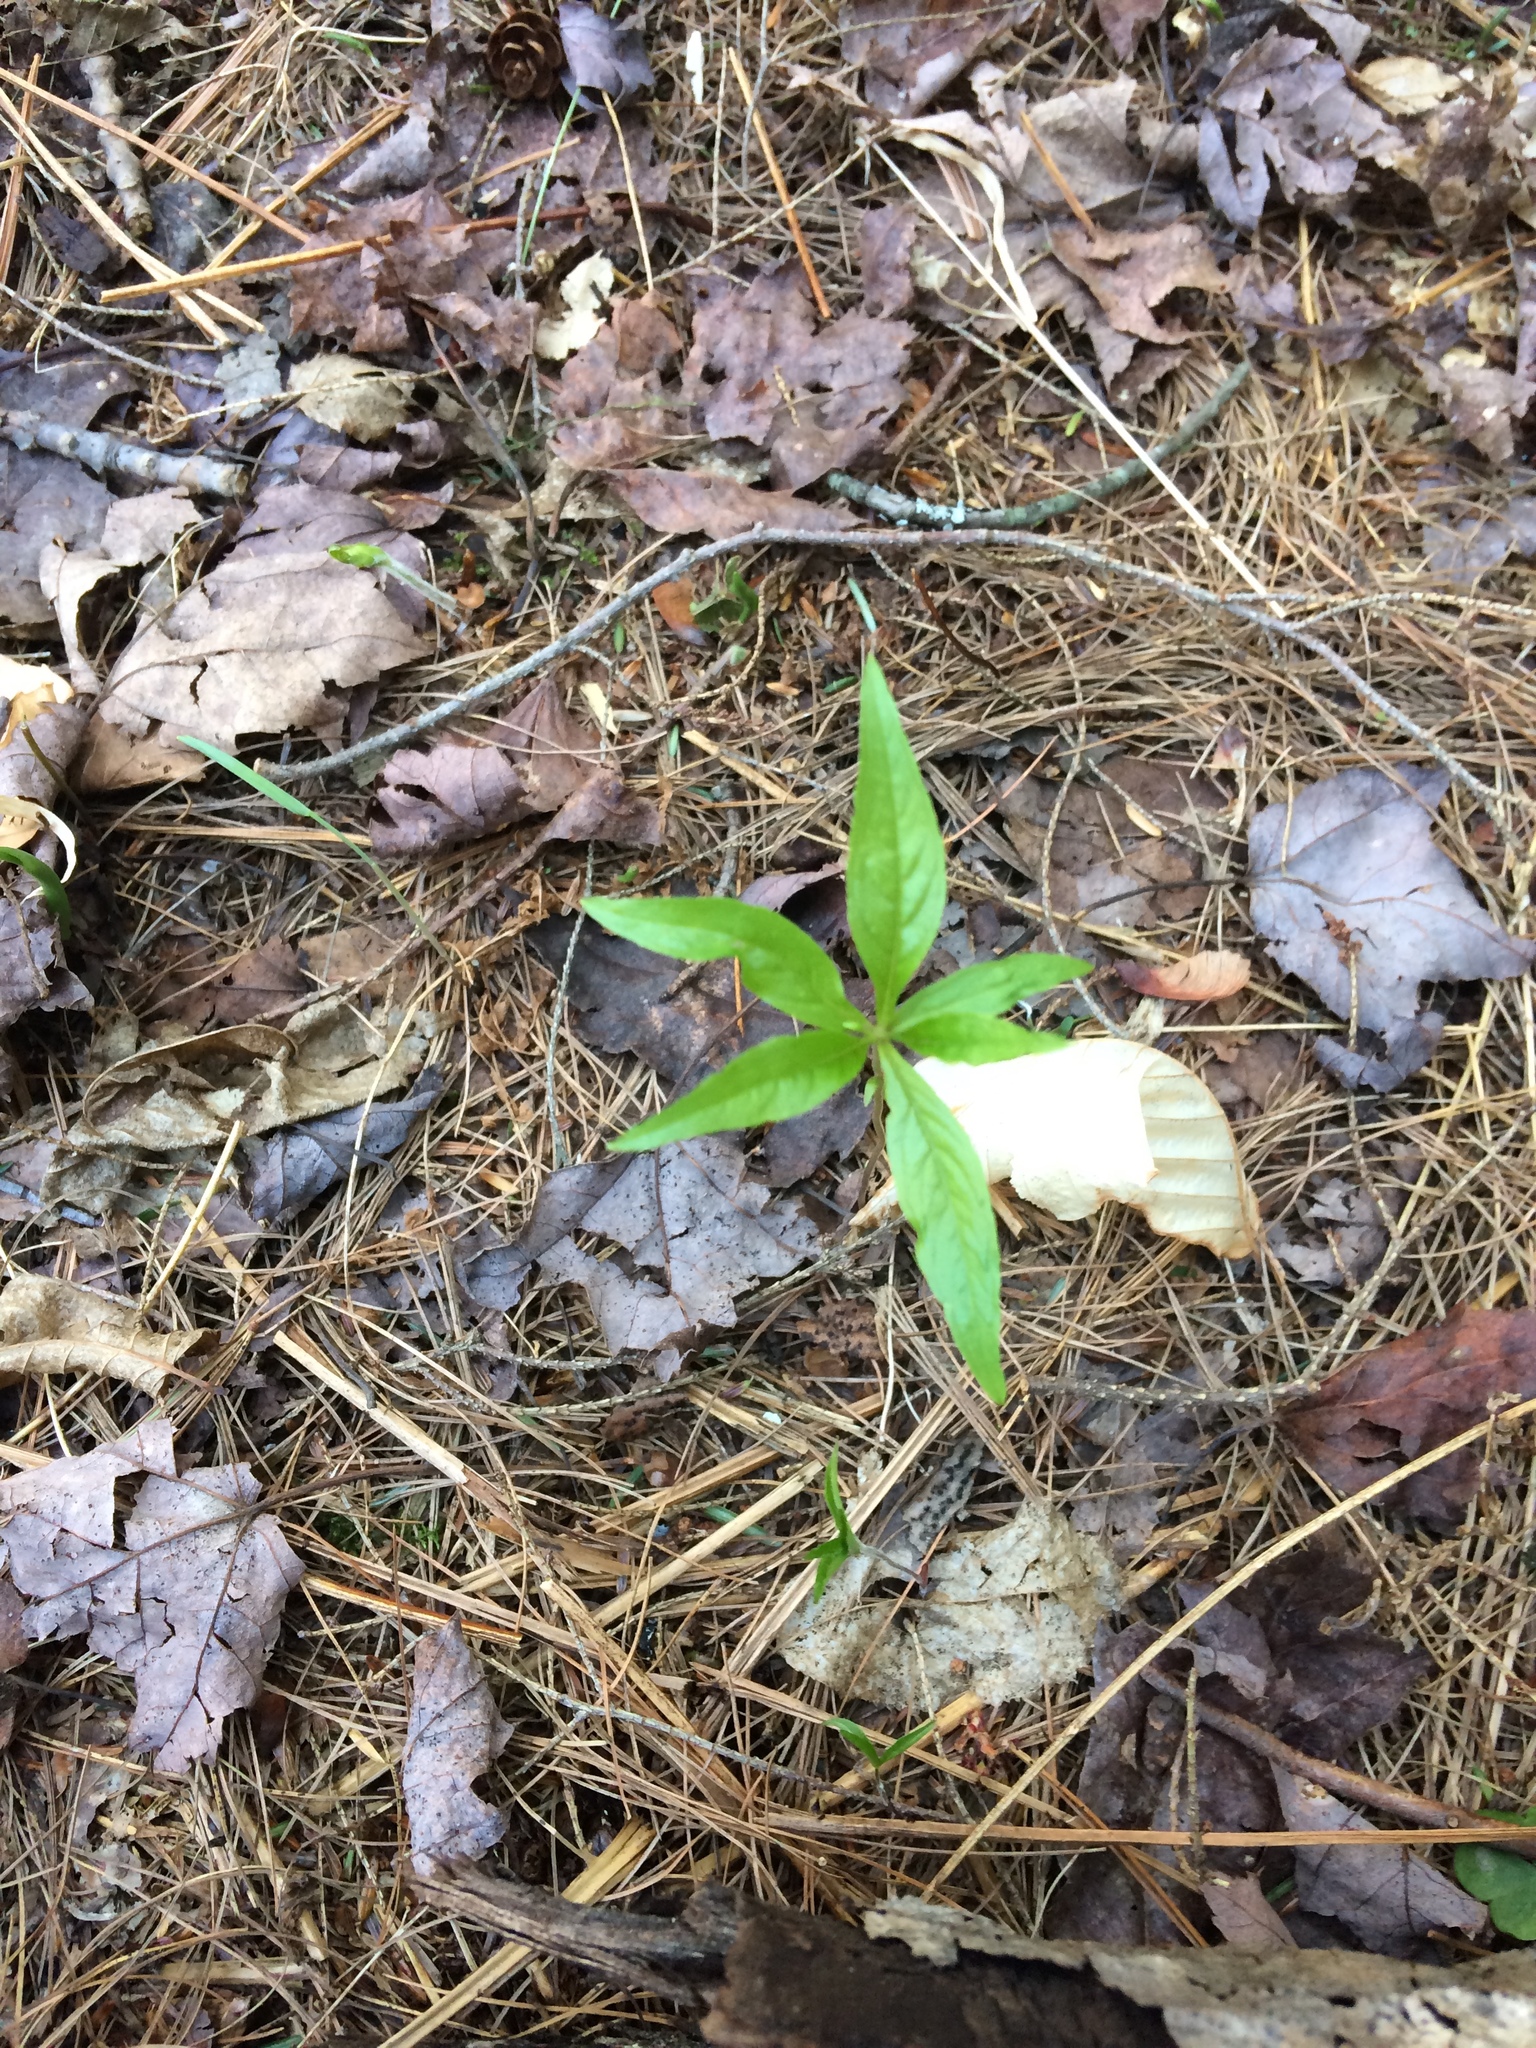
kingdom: Plantae
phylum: Tracheophyta
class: Magnoliopsida
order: Ericales
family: Primulaceae
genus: Lysimachia
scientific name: Lysimachia borealis
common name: American starflower
